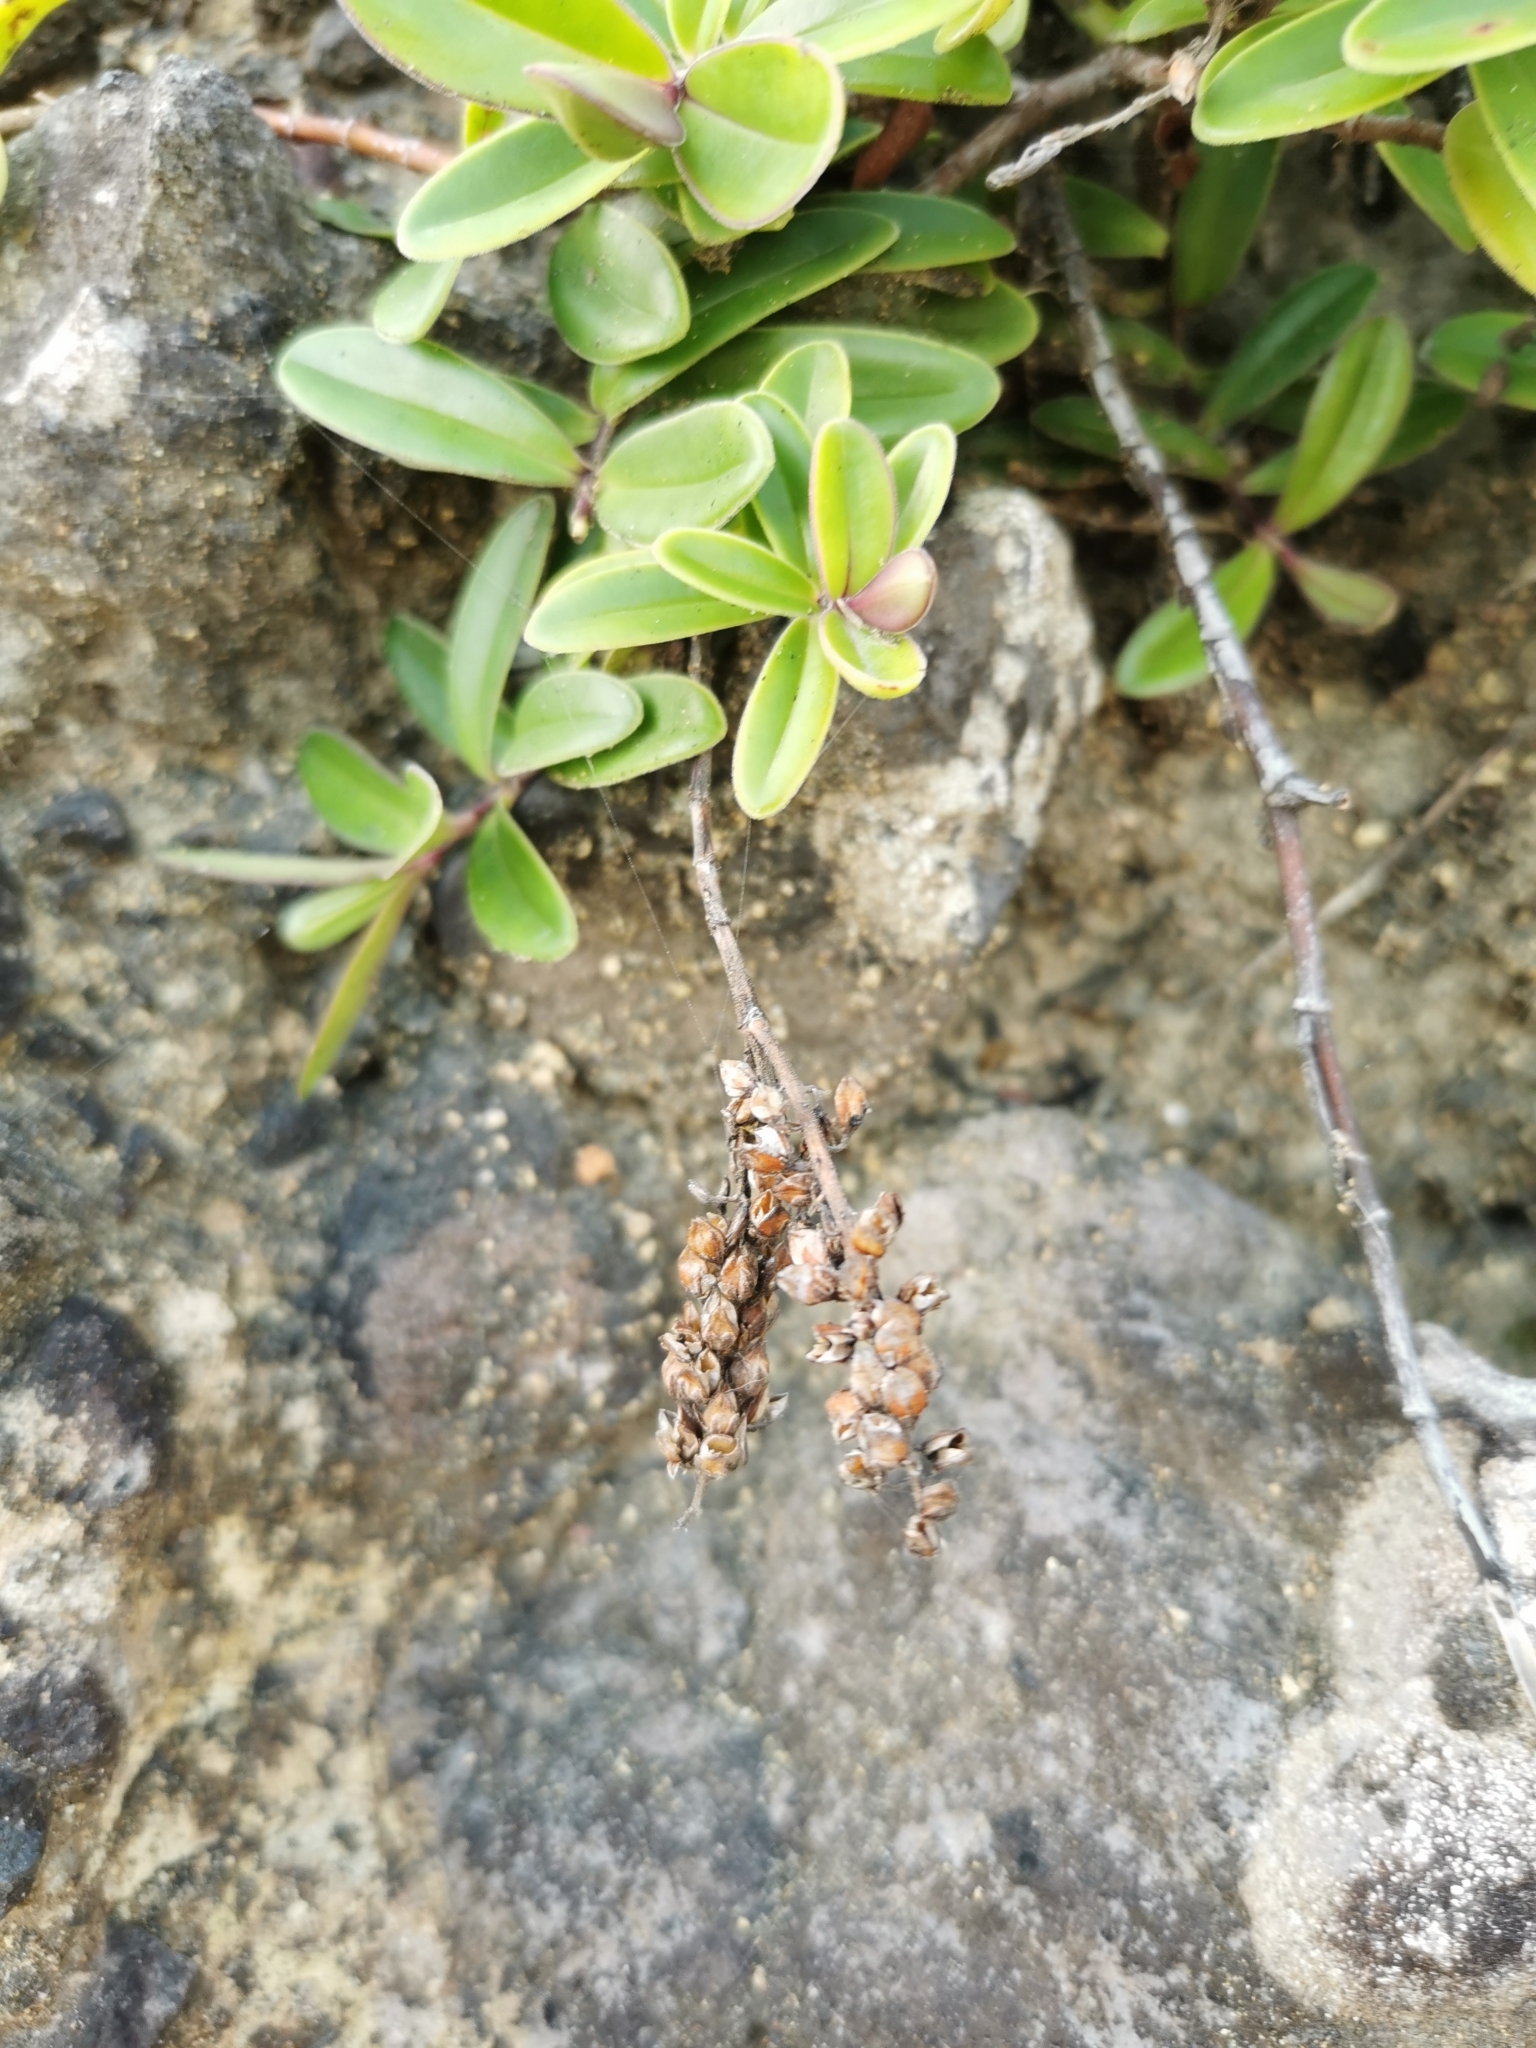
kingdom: Plantae
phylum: Tracheophyta
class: Magnoliopsida
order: Lamiales
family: Plantaginaceae
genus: Veronica
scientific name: Veronica obtusata
